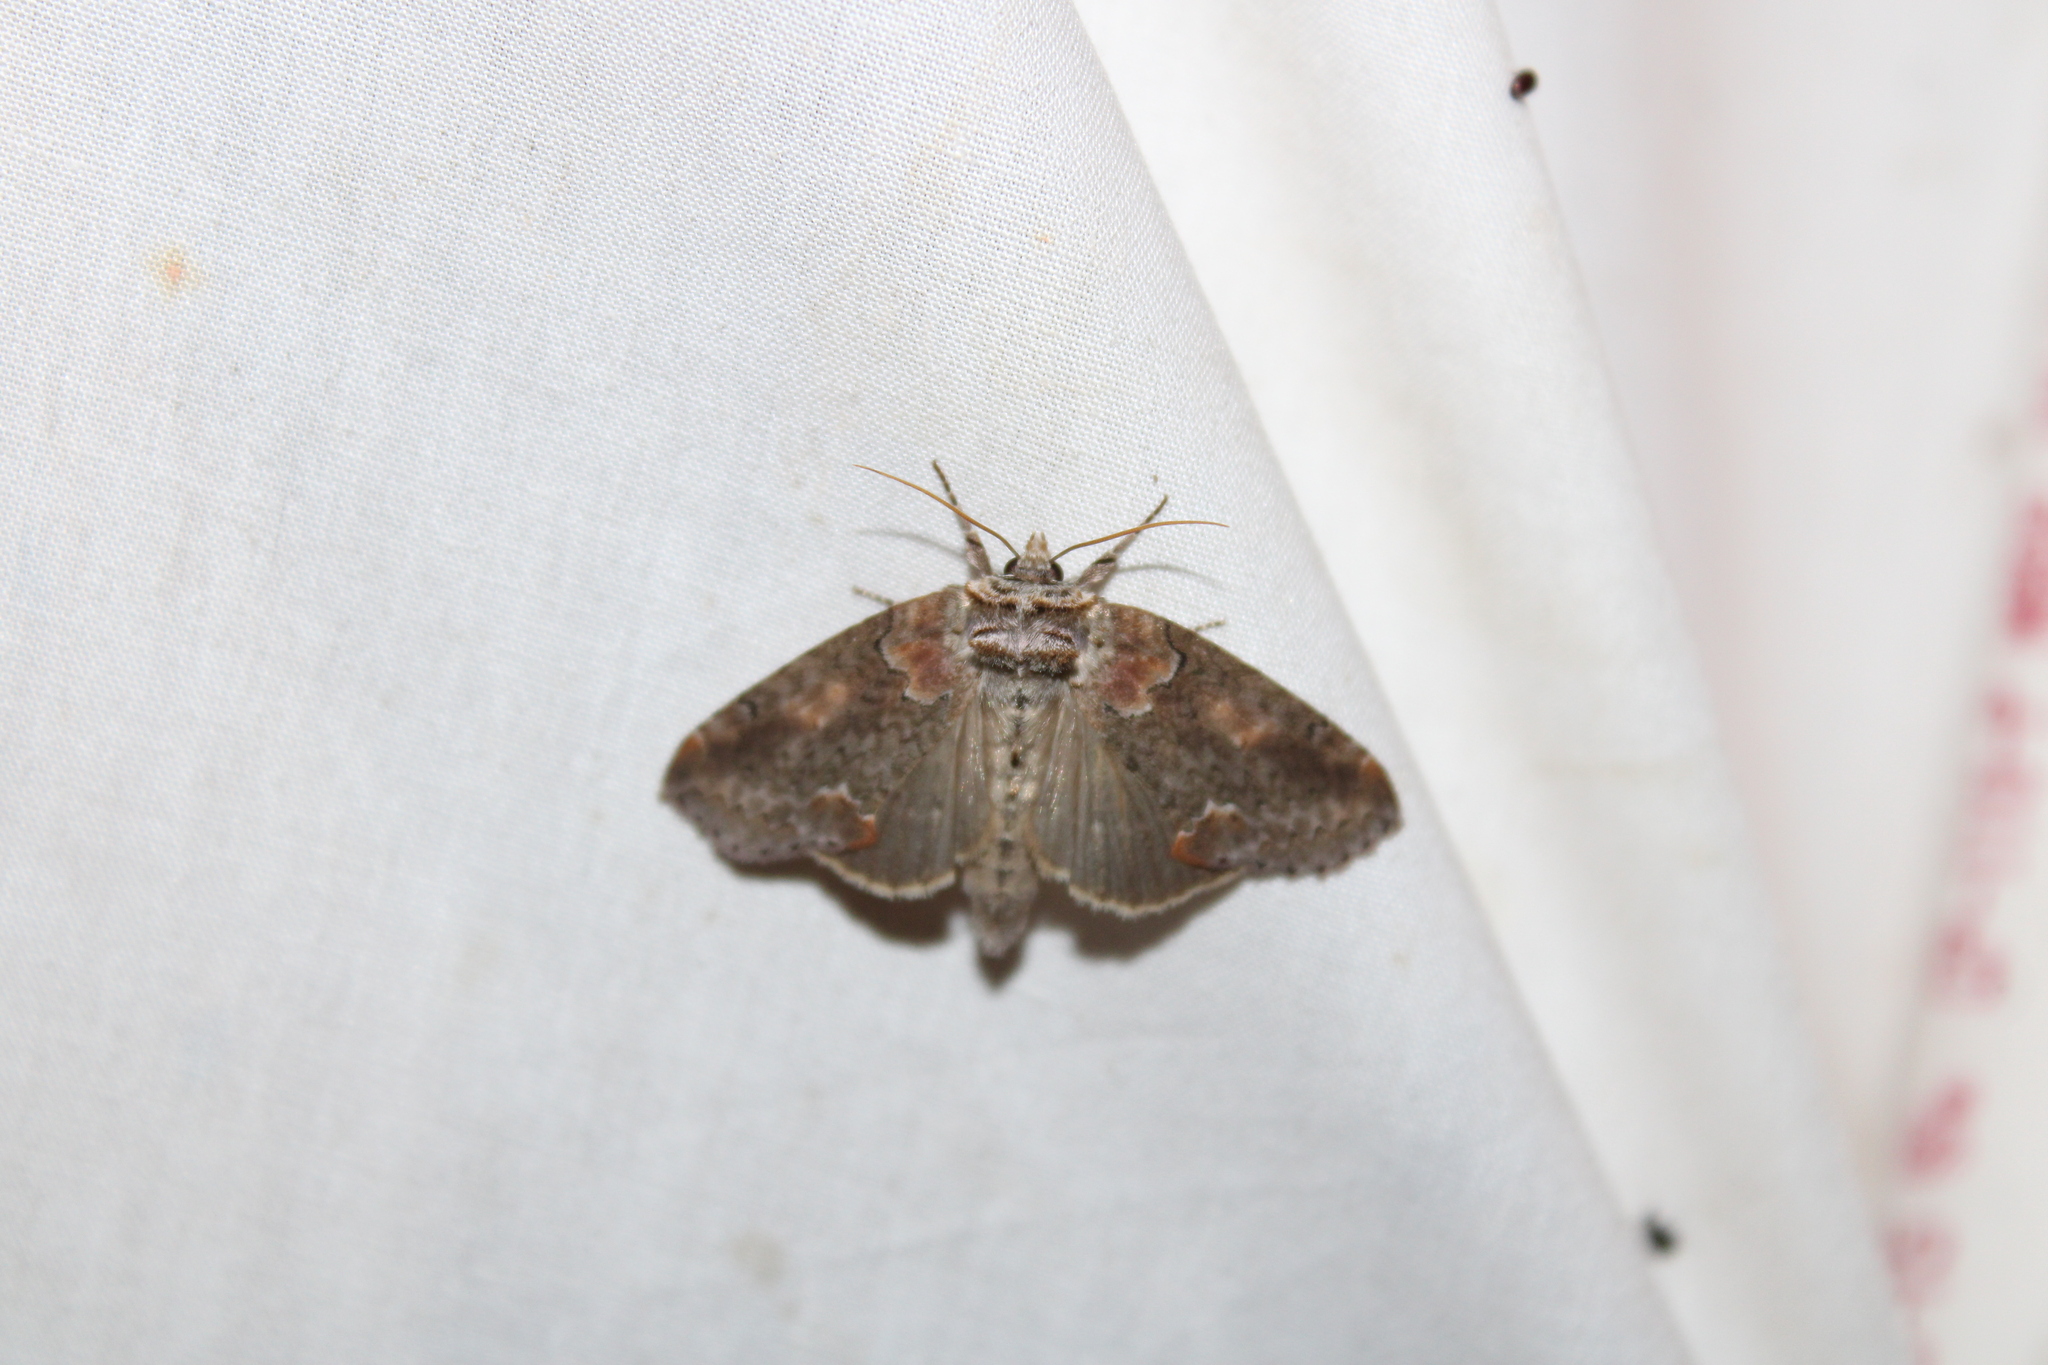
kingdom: Animalia
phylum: Arthropoda
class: Insecta
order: Lepidoptera
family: Drepanidae
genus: Pseudothyatira
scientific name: Pseudothyatira cymatophoroides
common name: Tufted thyatirid moth
